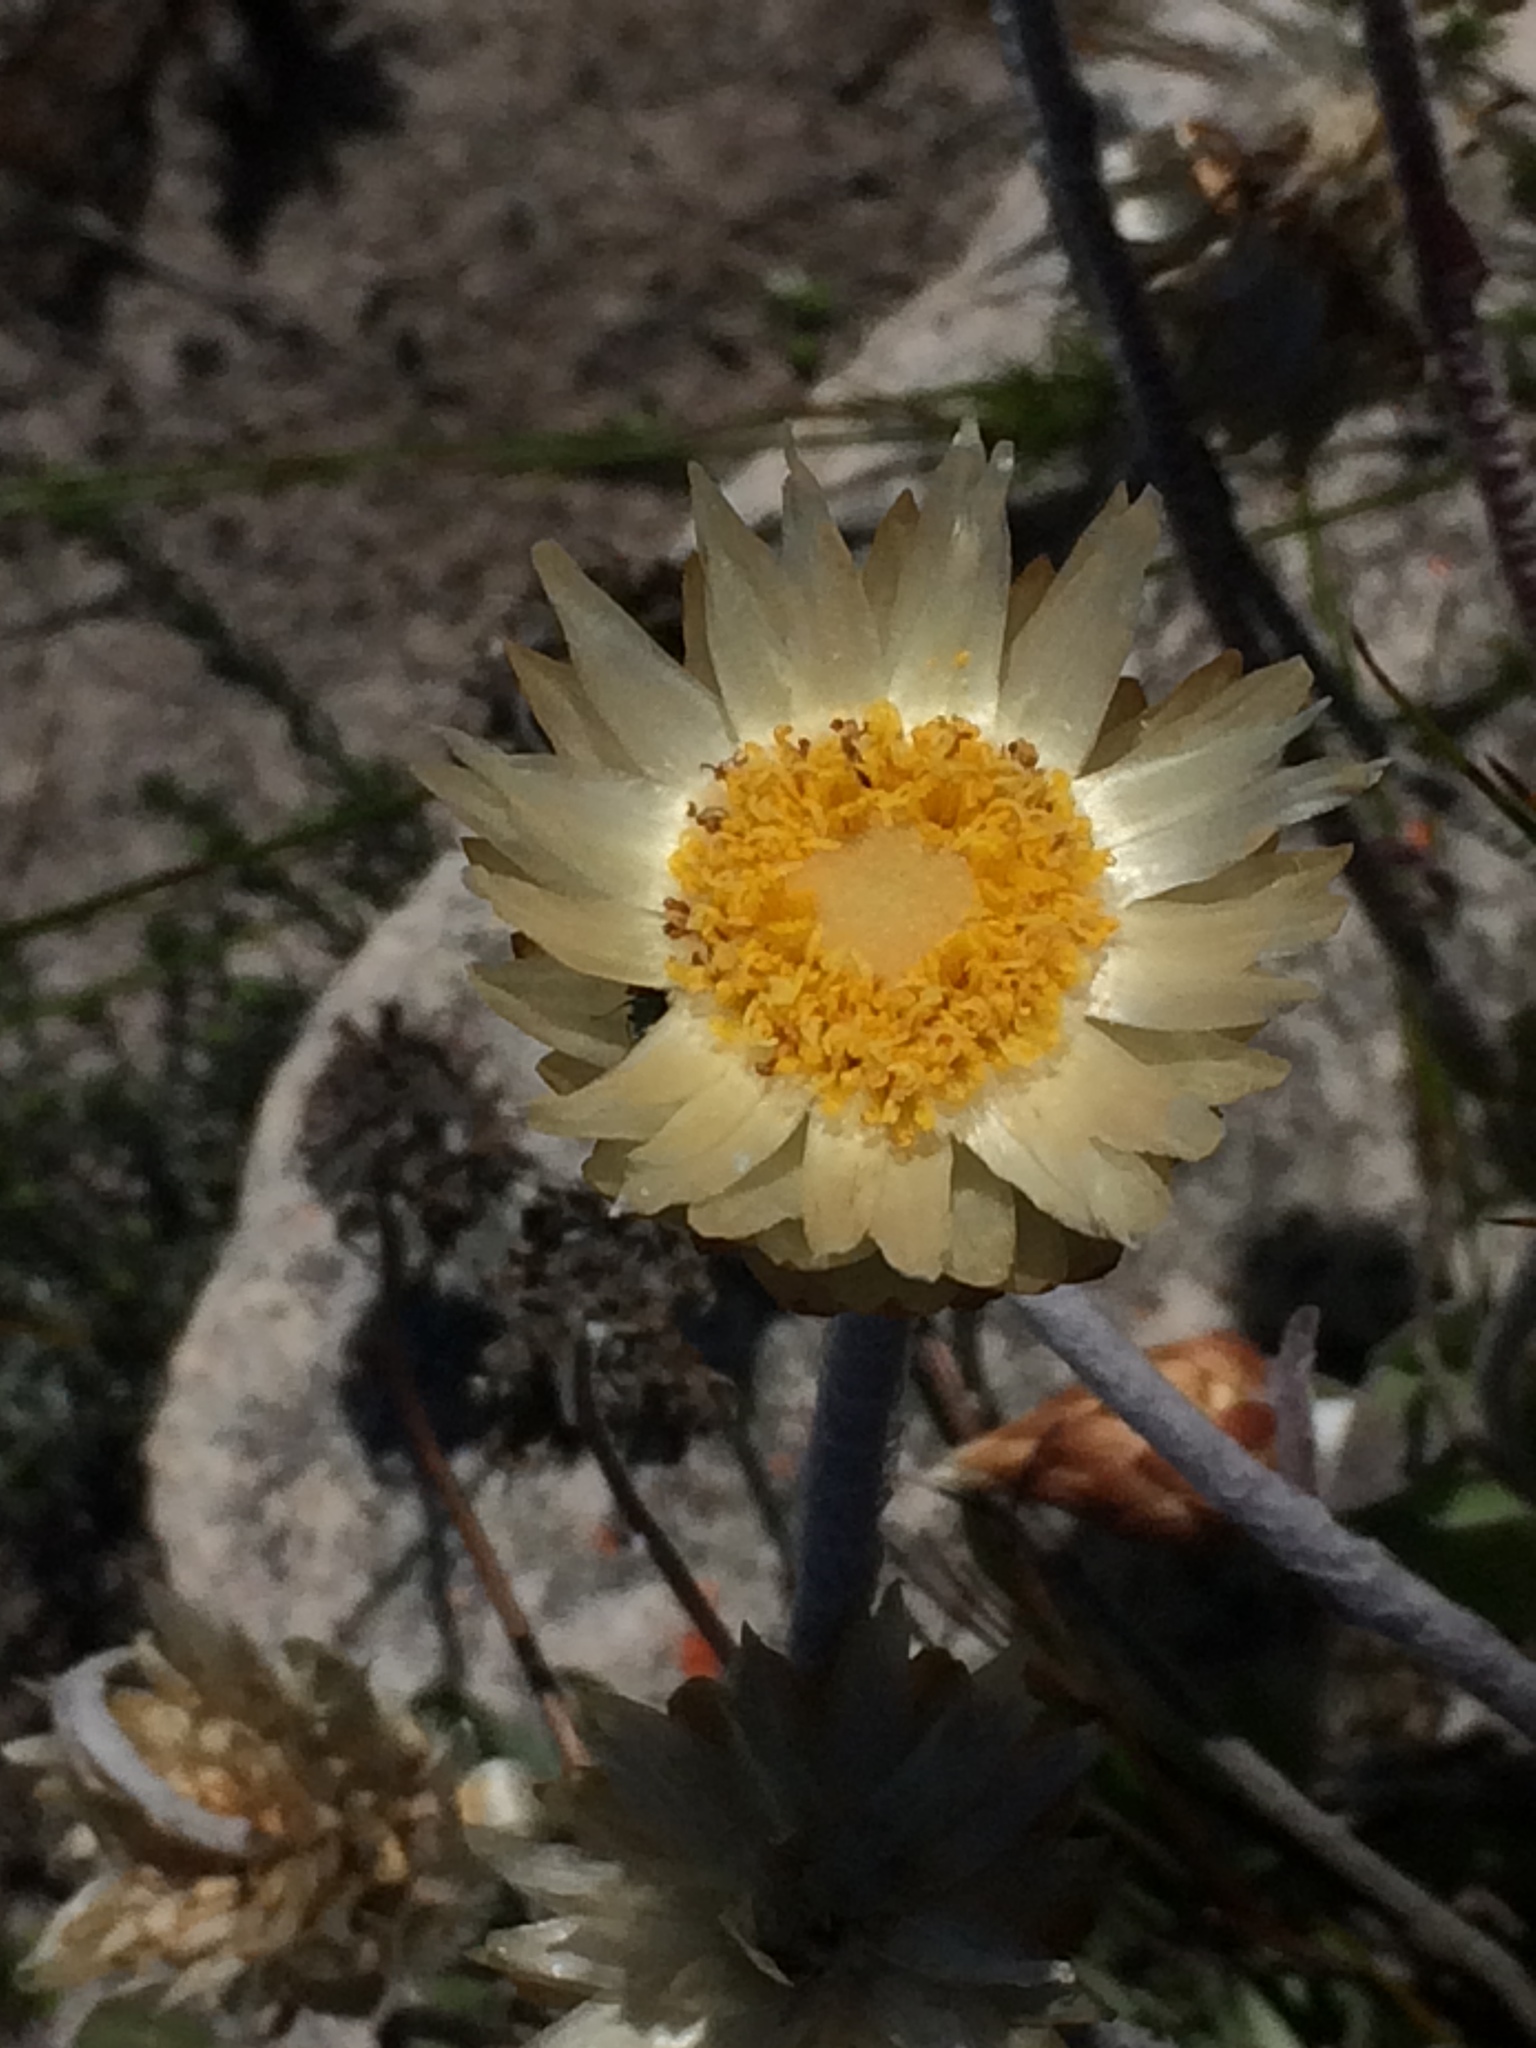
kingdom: Plantae
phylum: Tracheophyta
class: Magnoliopsida
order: Asterales
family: Asteraceae
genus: Syncarpha
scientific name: Syncarpha speciosissima
